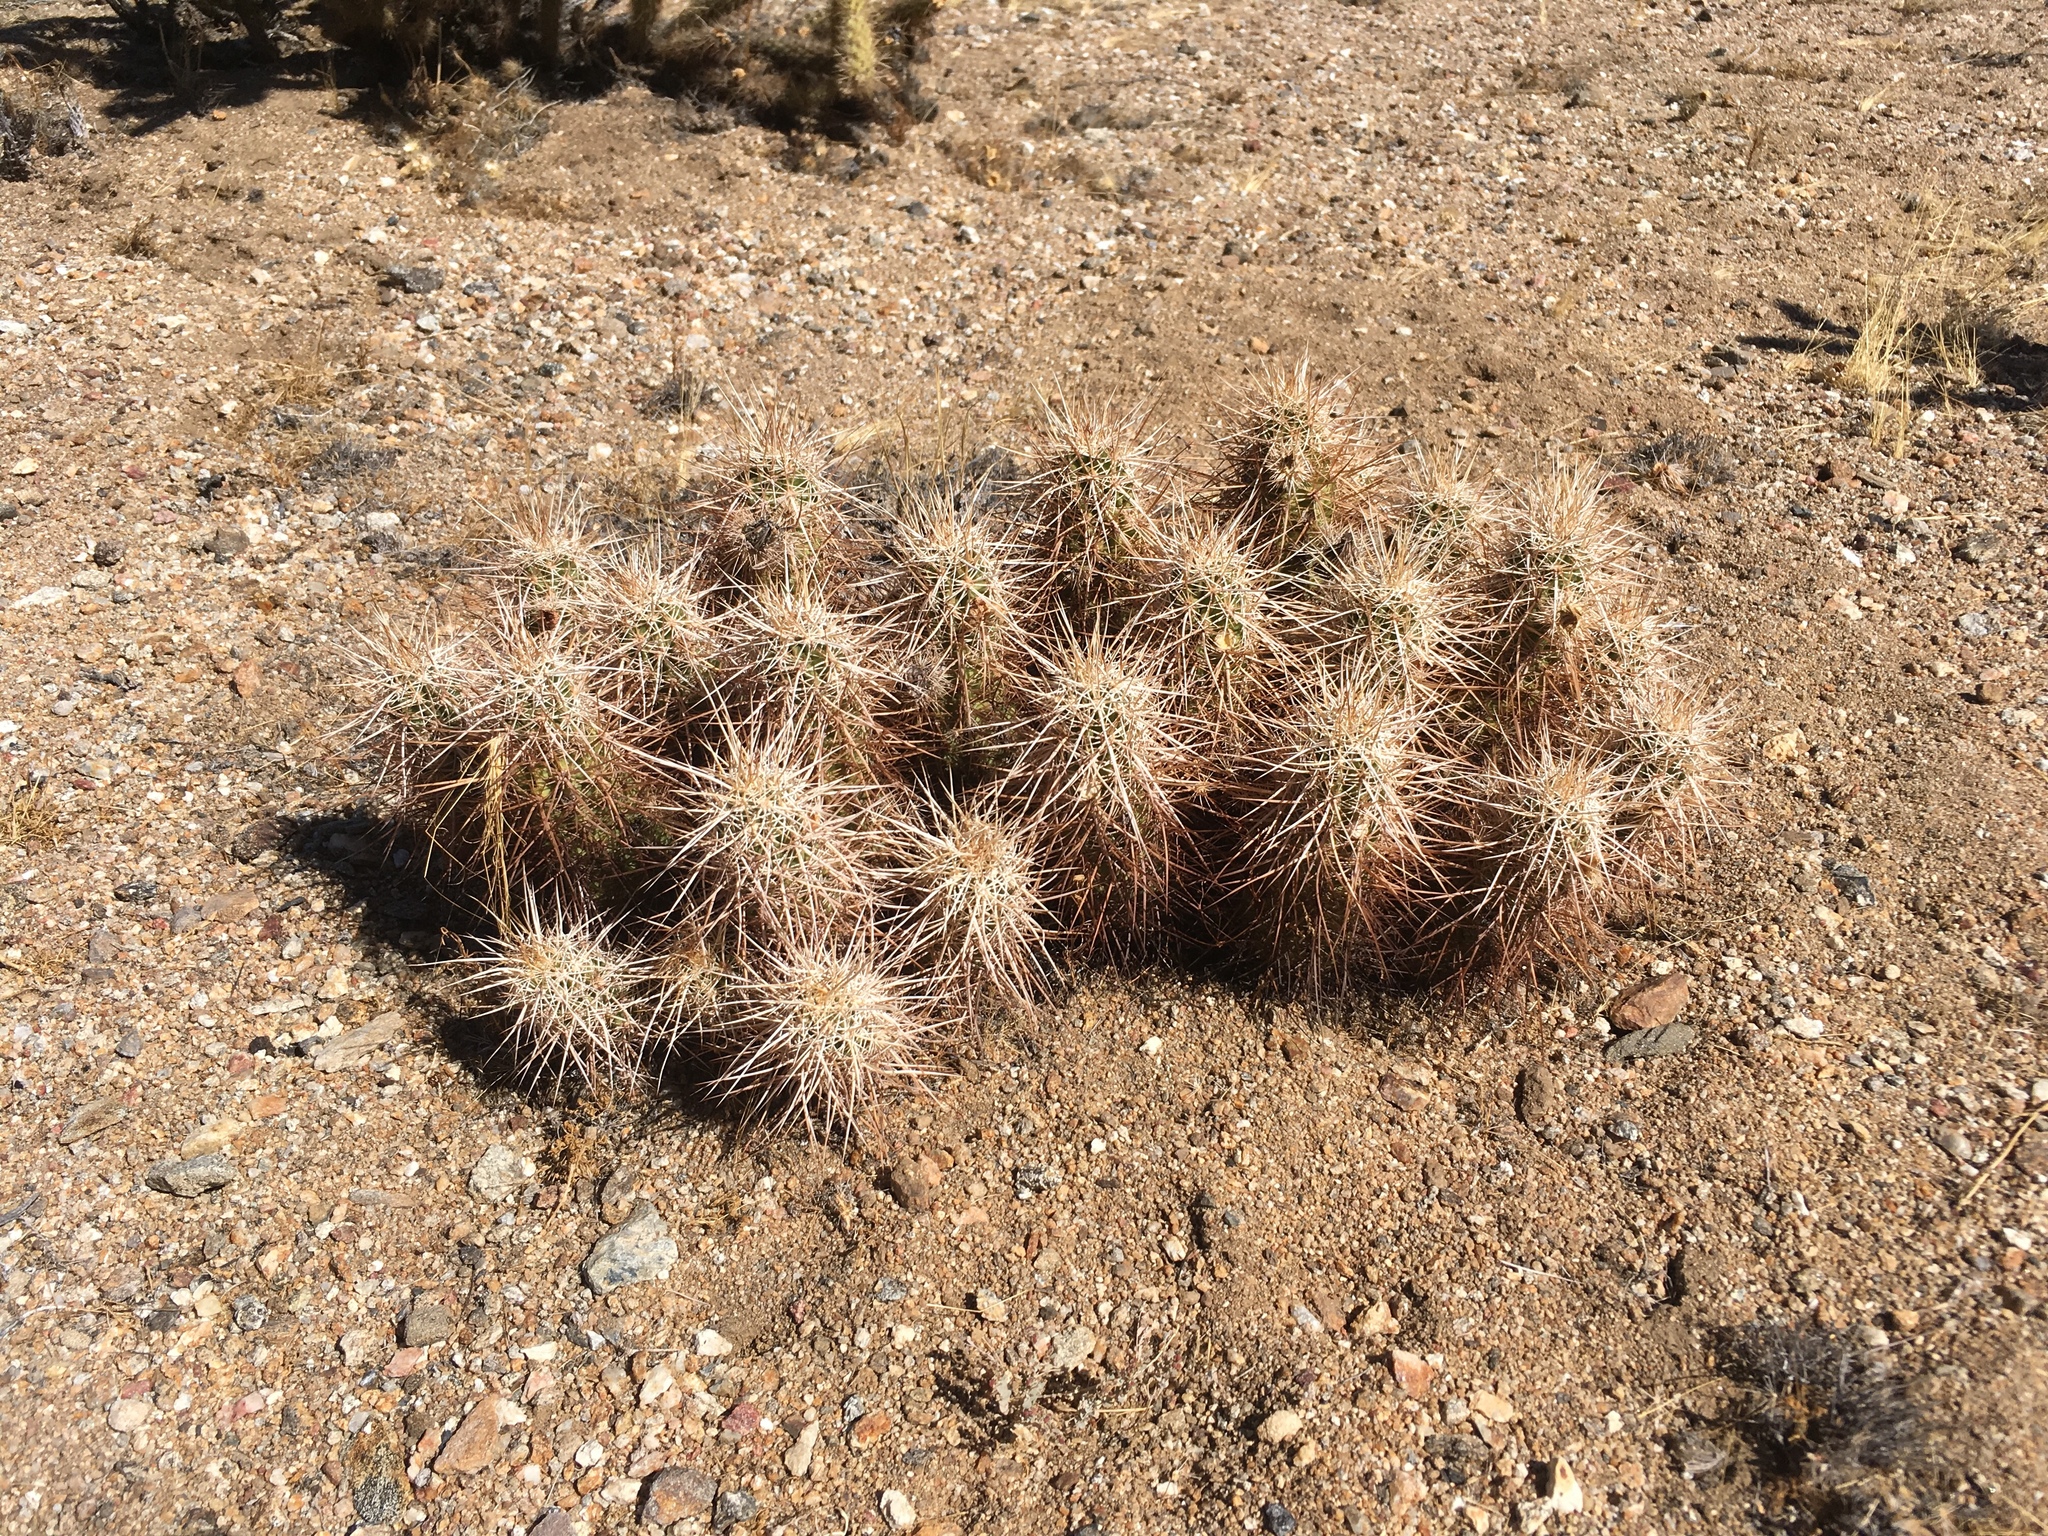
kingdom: Plantae
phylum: Tracheophyta
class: Magnoliopsida
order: Caryophyllales
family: Cactaceae
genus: Echinocereus
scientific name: Echinocereus engelmannii
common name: Engelmann's hedgehog cactus
